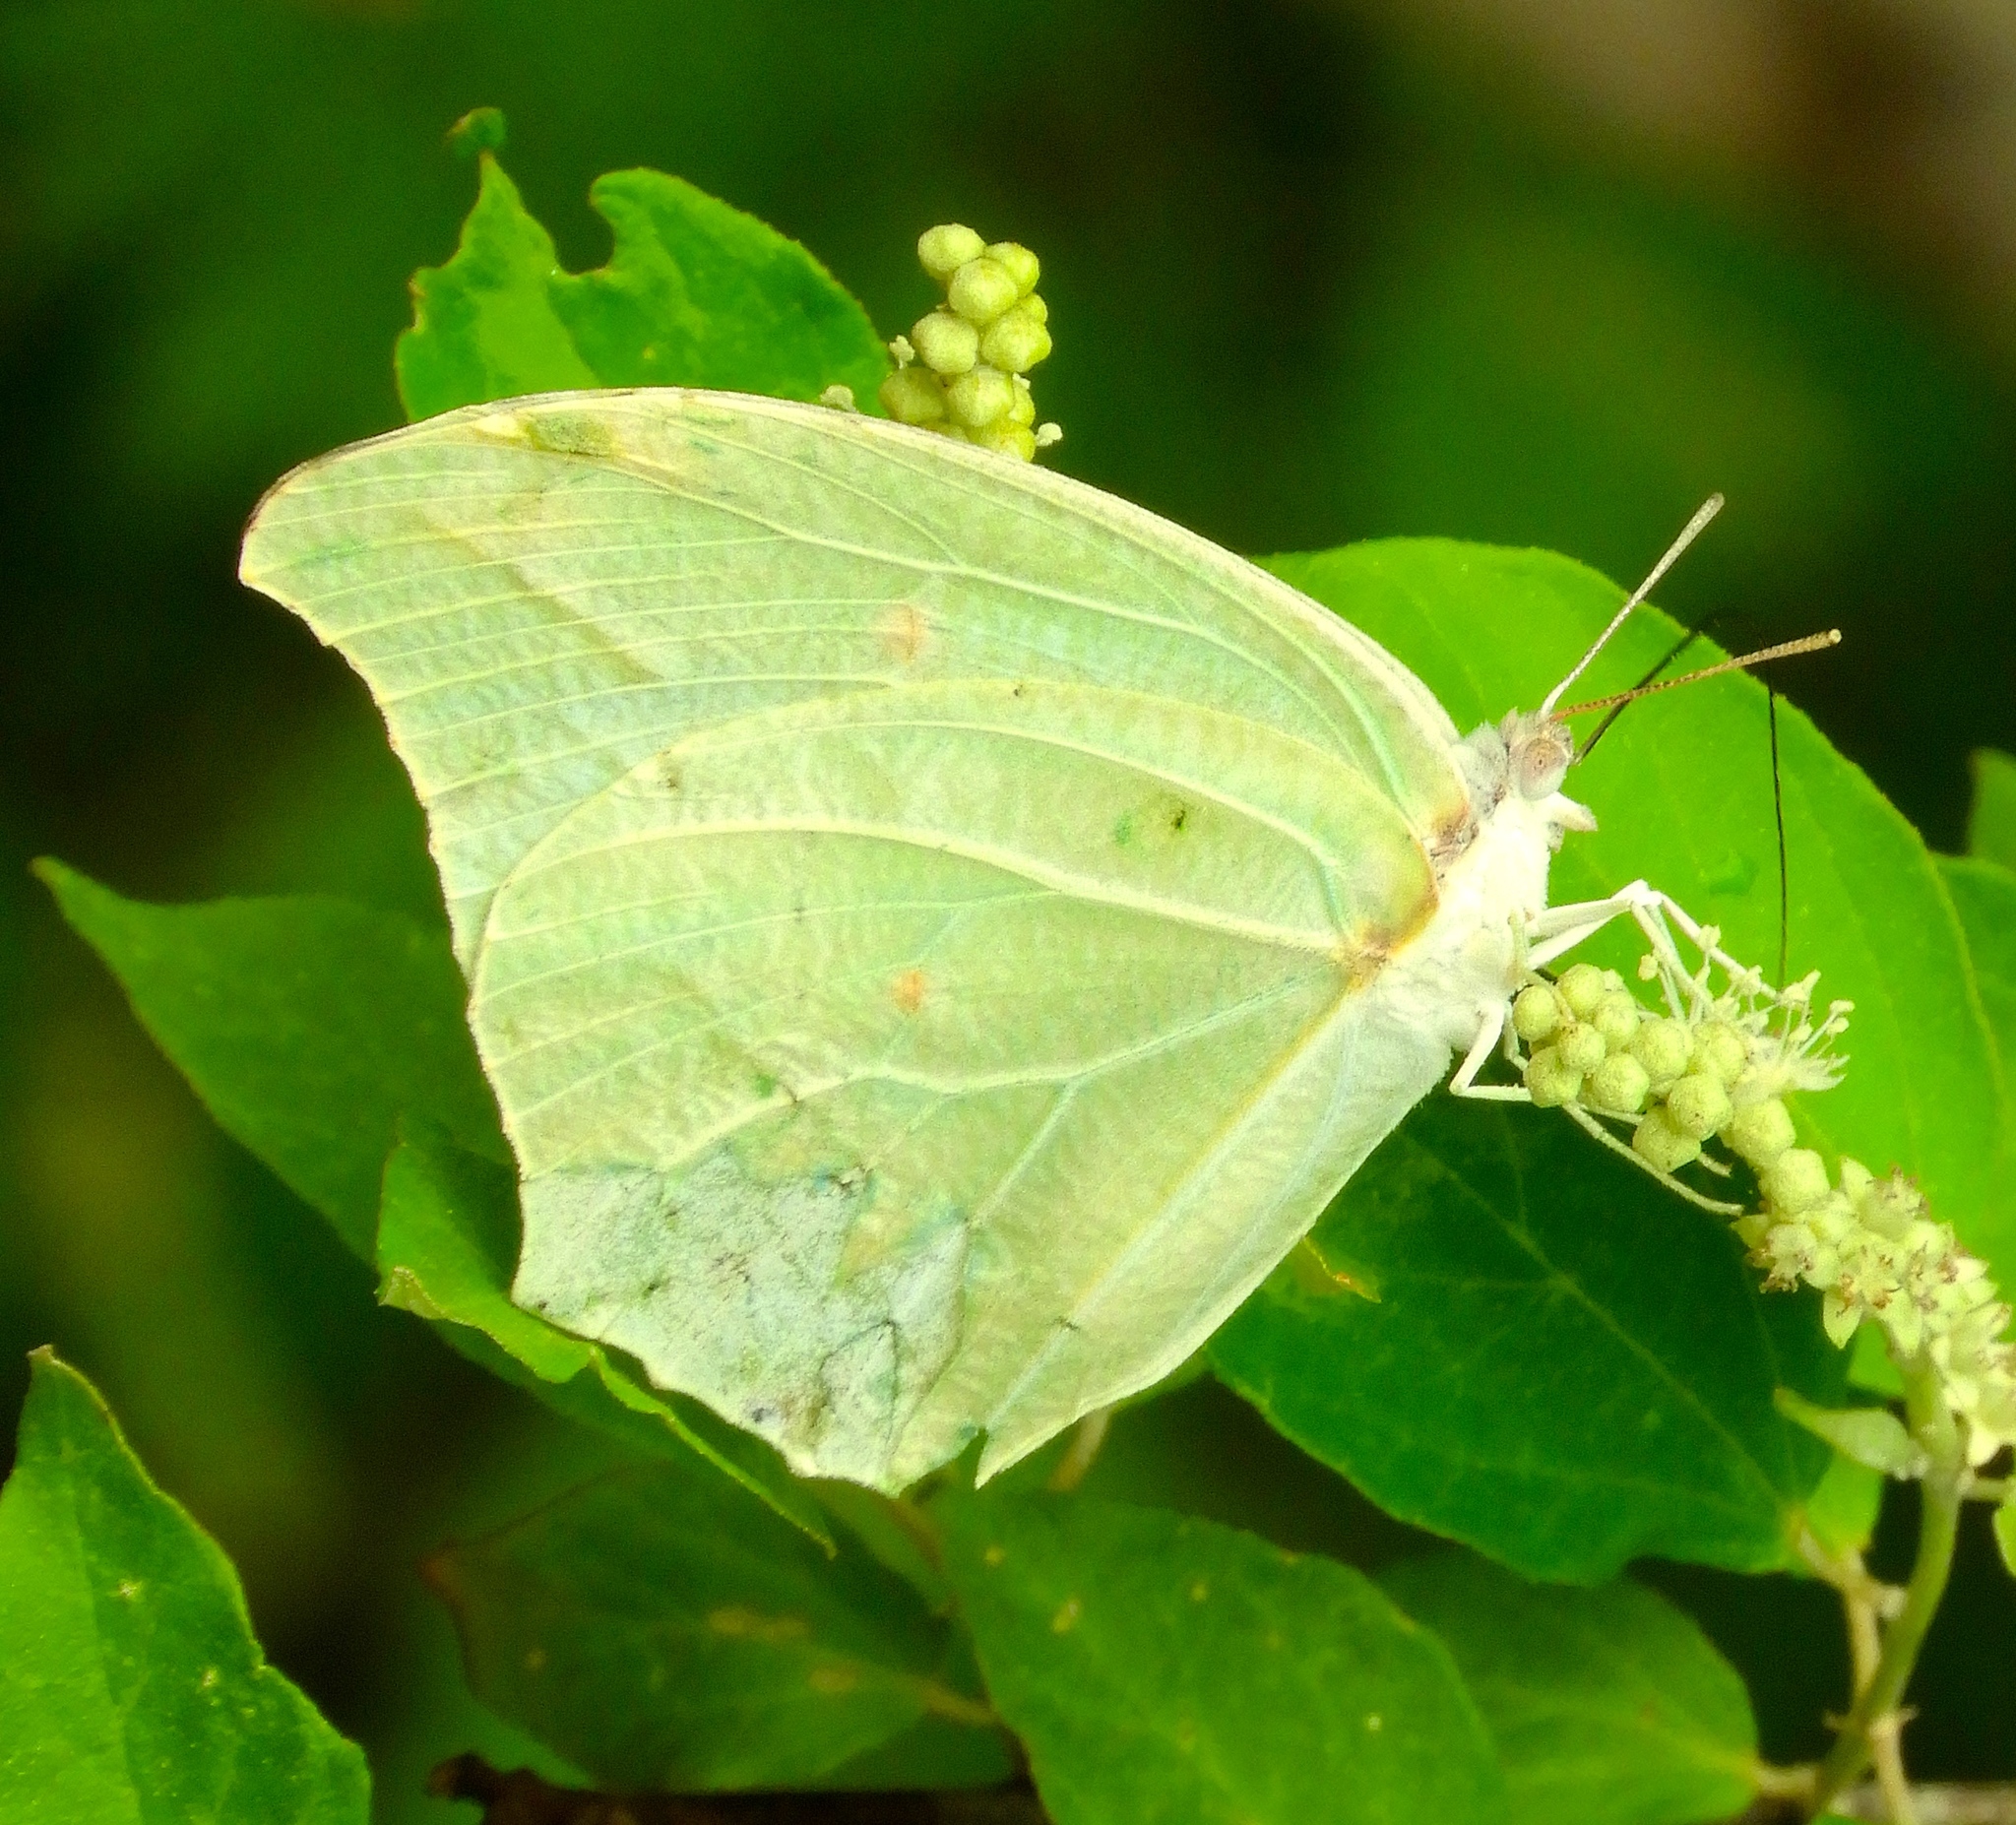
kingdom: Animalia
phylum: Arthropoda
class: Insecta
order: Lepidoptera
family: Pieridae
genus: Anteos
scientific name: Anteos clorinde
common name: White angled sulphur
